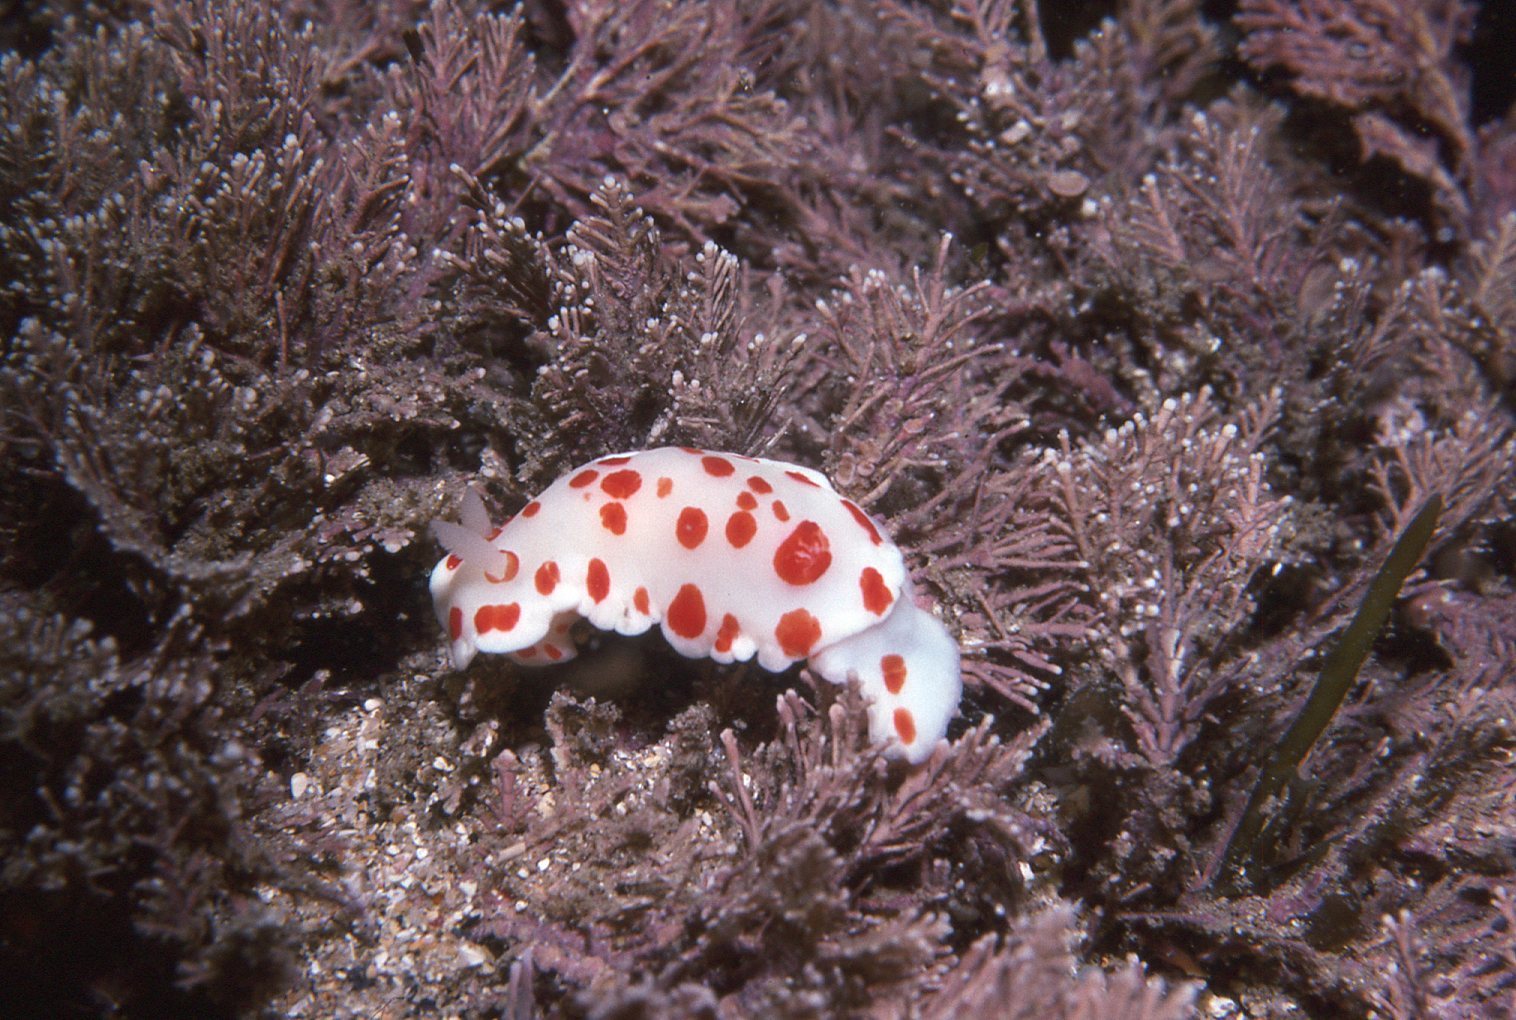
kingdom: Animalia
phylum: Mollusca
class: Gastropoda
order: Nudibranchia
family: Chromodorididae
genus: Goniobranchus
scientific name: Goniobranchus tasmaniensis
